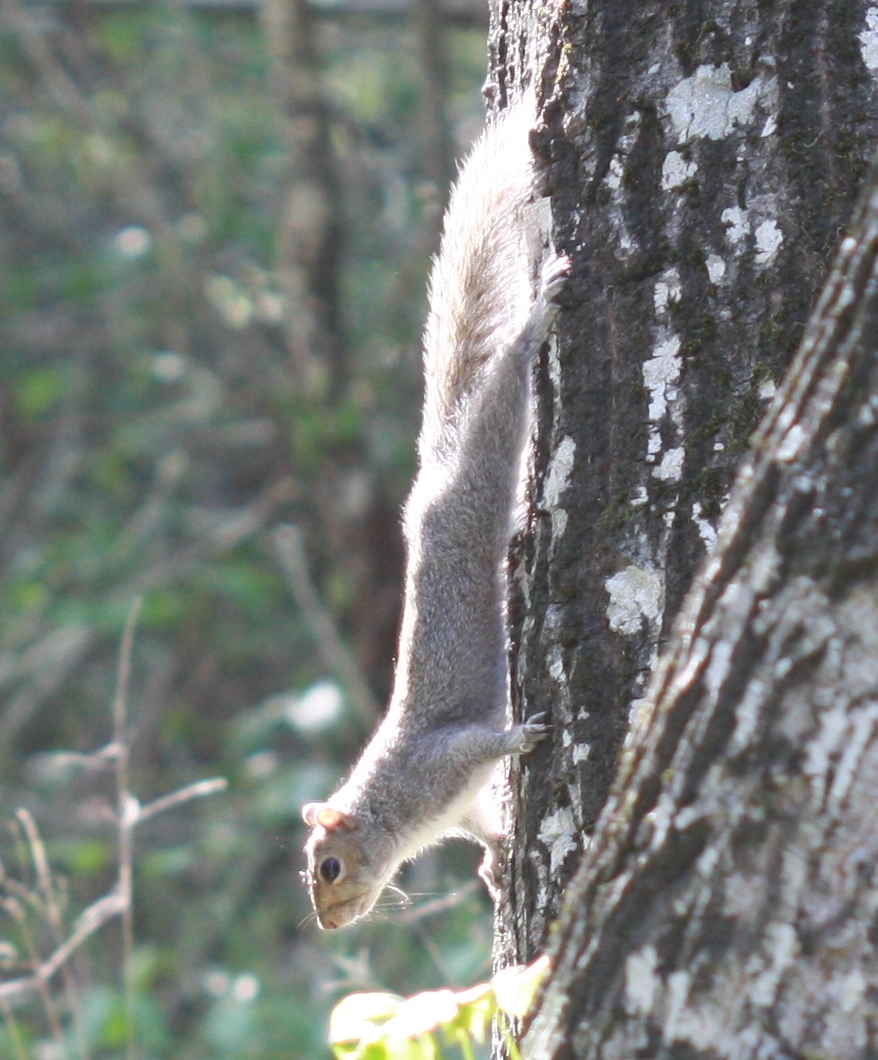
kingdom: Animalia
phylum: Chordata
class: Mammalia
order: Rodentia
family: Sciuridae
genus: Sciurus
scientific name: Sciurus carolinensis
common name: Eastern gray squirrel
